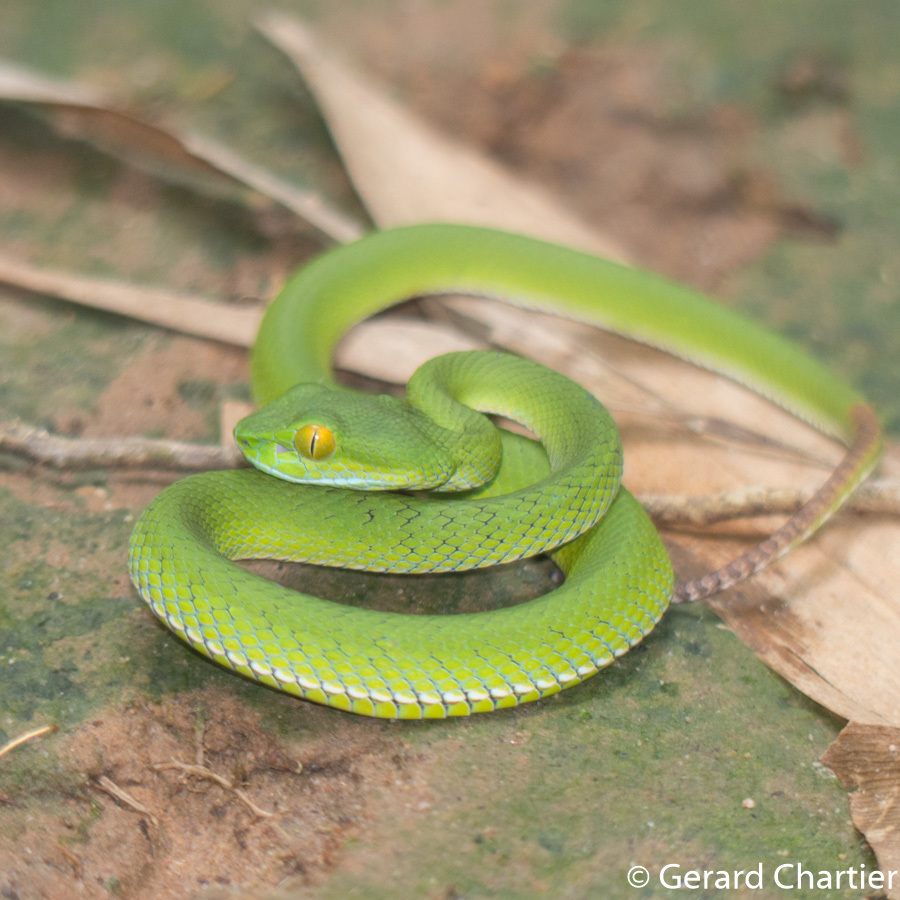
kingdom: Animalia
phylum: Chordata
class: Squamata
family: Viperidae
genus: Trimeresurus
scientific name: Trimeresurus cardamomensis
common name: Cardamom mountains green pitviper
